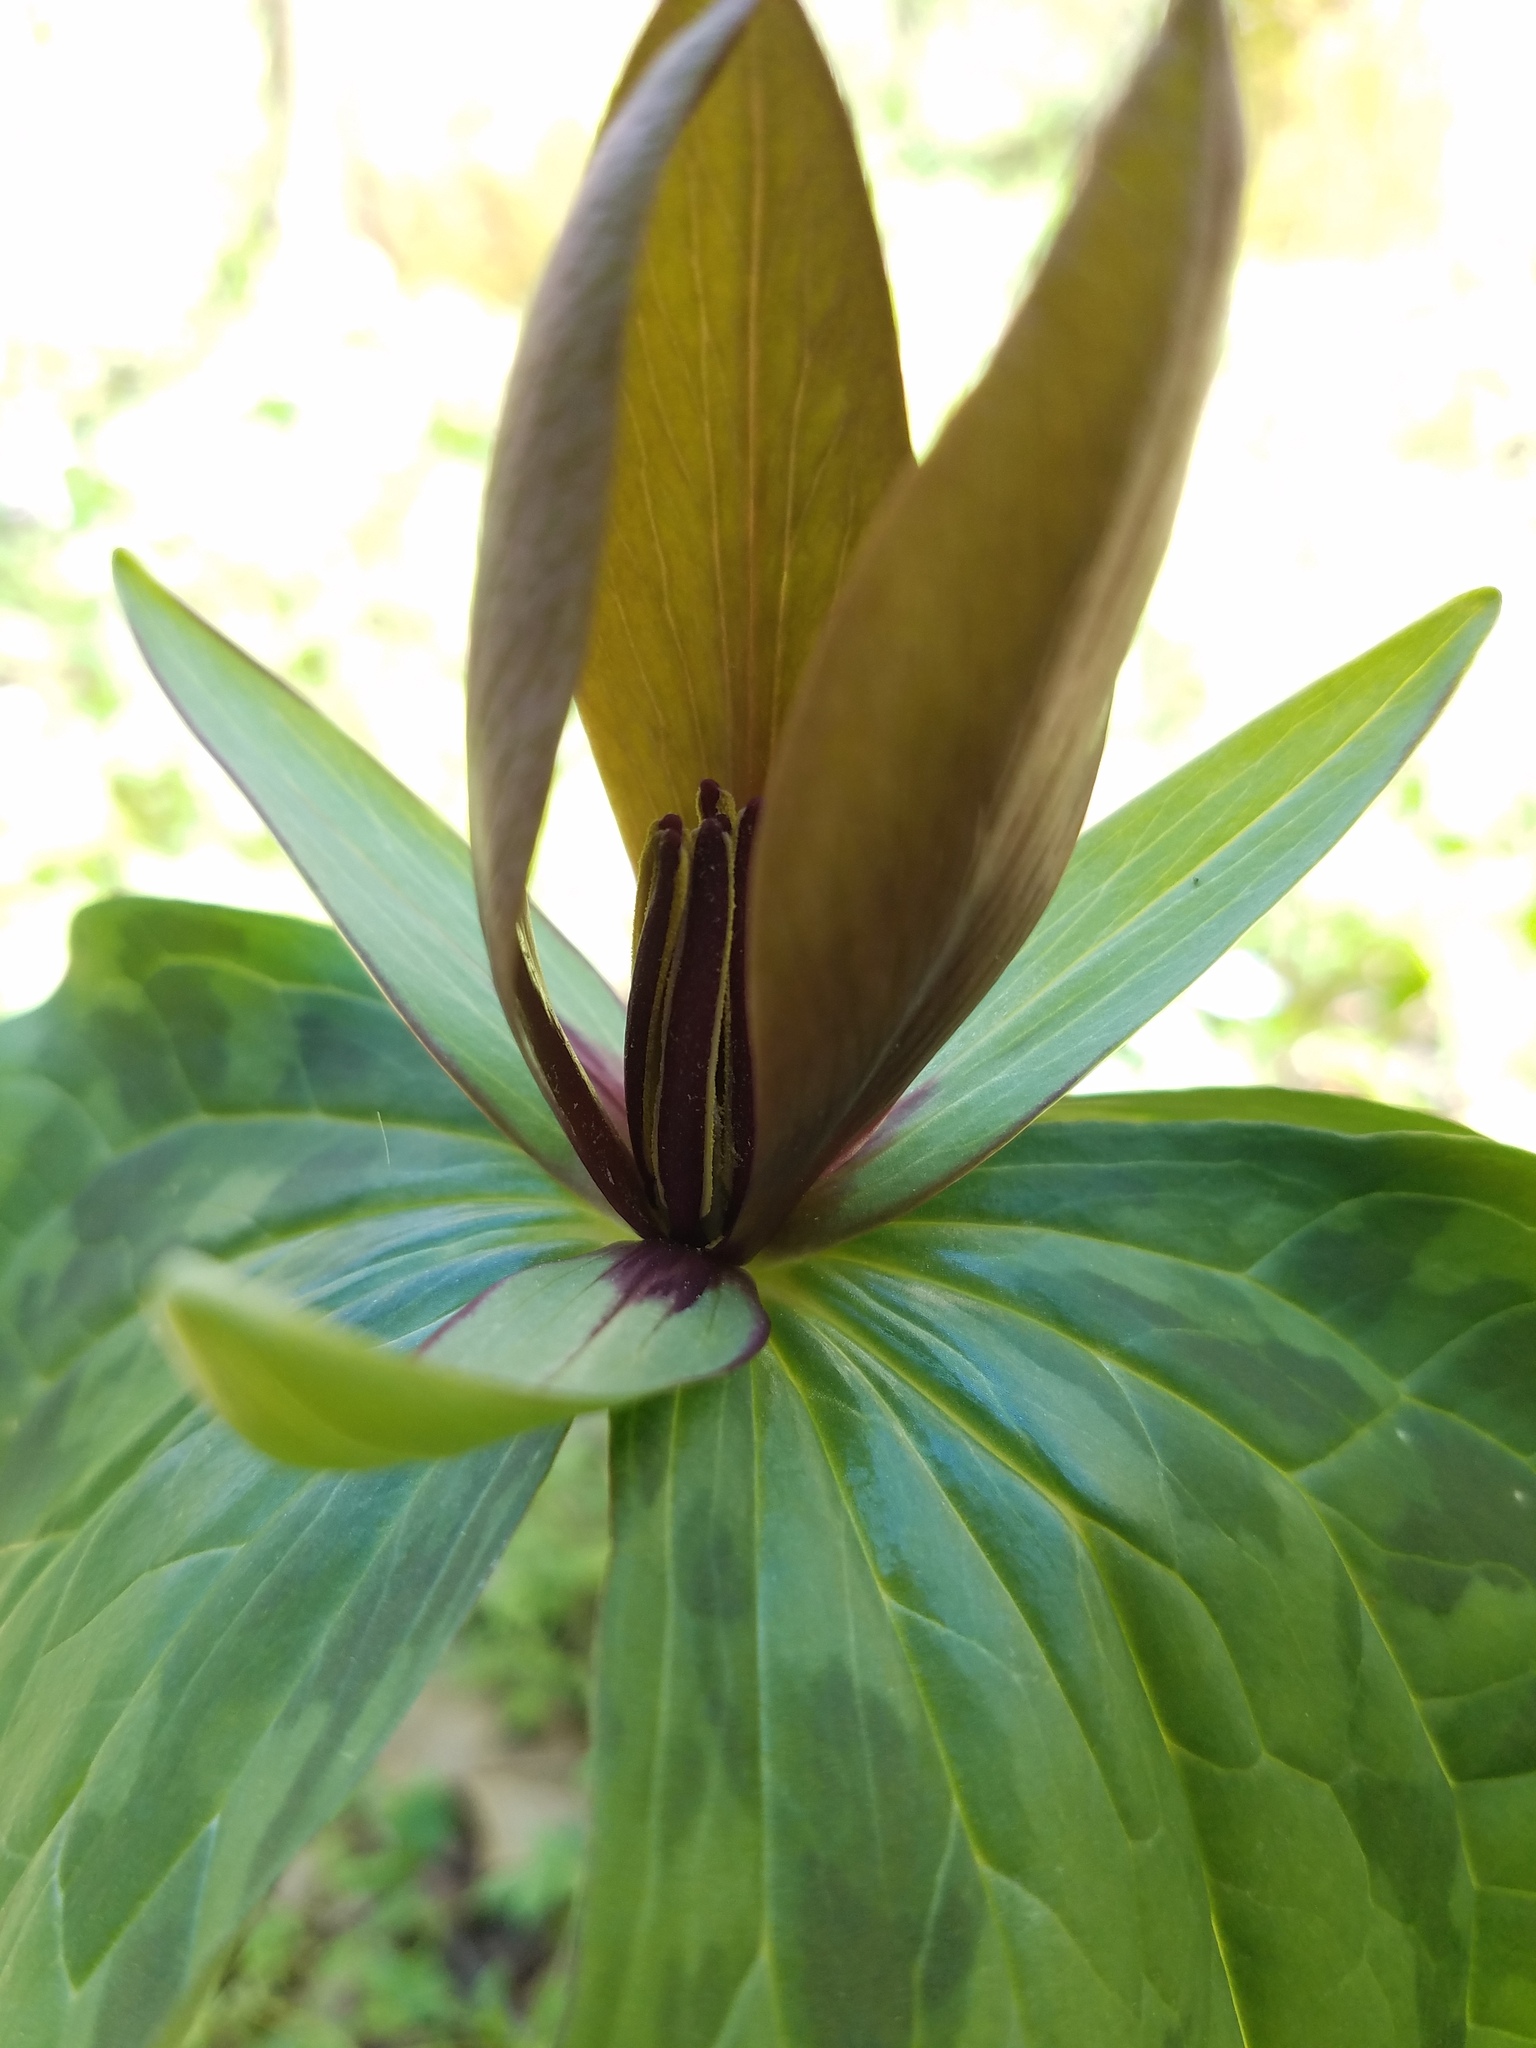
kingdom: Plantae
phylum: Tracheophyta
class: Liliopsida
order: Liliales
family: Melanthiaceae
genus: Trillium
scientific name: Trillium cuneatum
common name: Cuneate trillium
